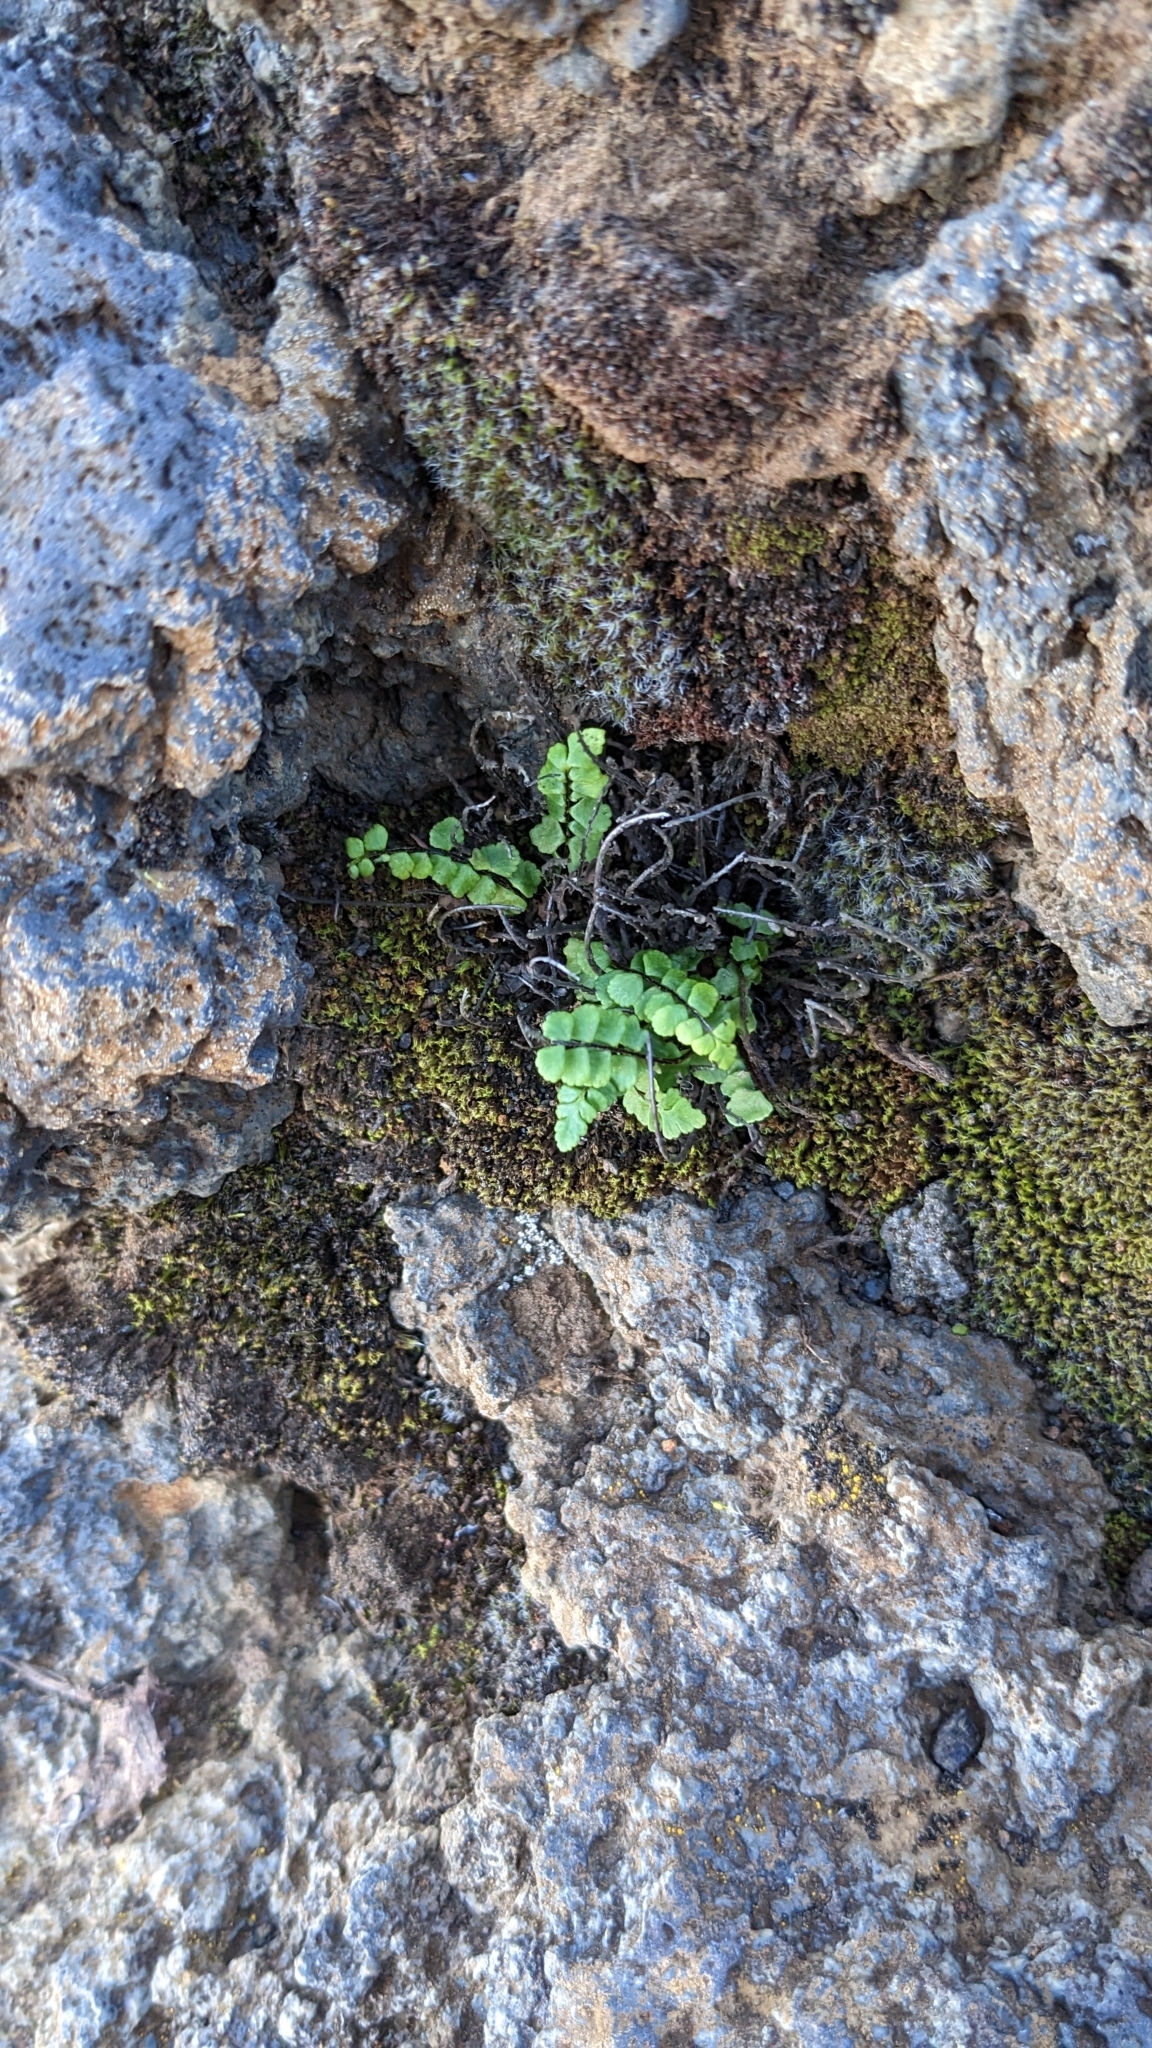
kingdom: Plantae
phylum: Tracheophyta
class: Polypodiopsida
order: Polypodiales
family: Aspleniaceae
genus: Asplenium
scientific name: Asplenium trichomanes
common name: Maidenhair spleenwort
